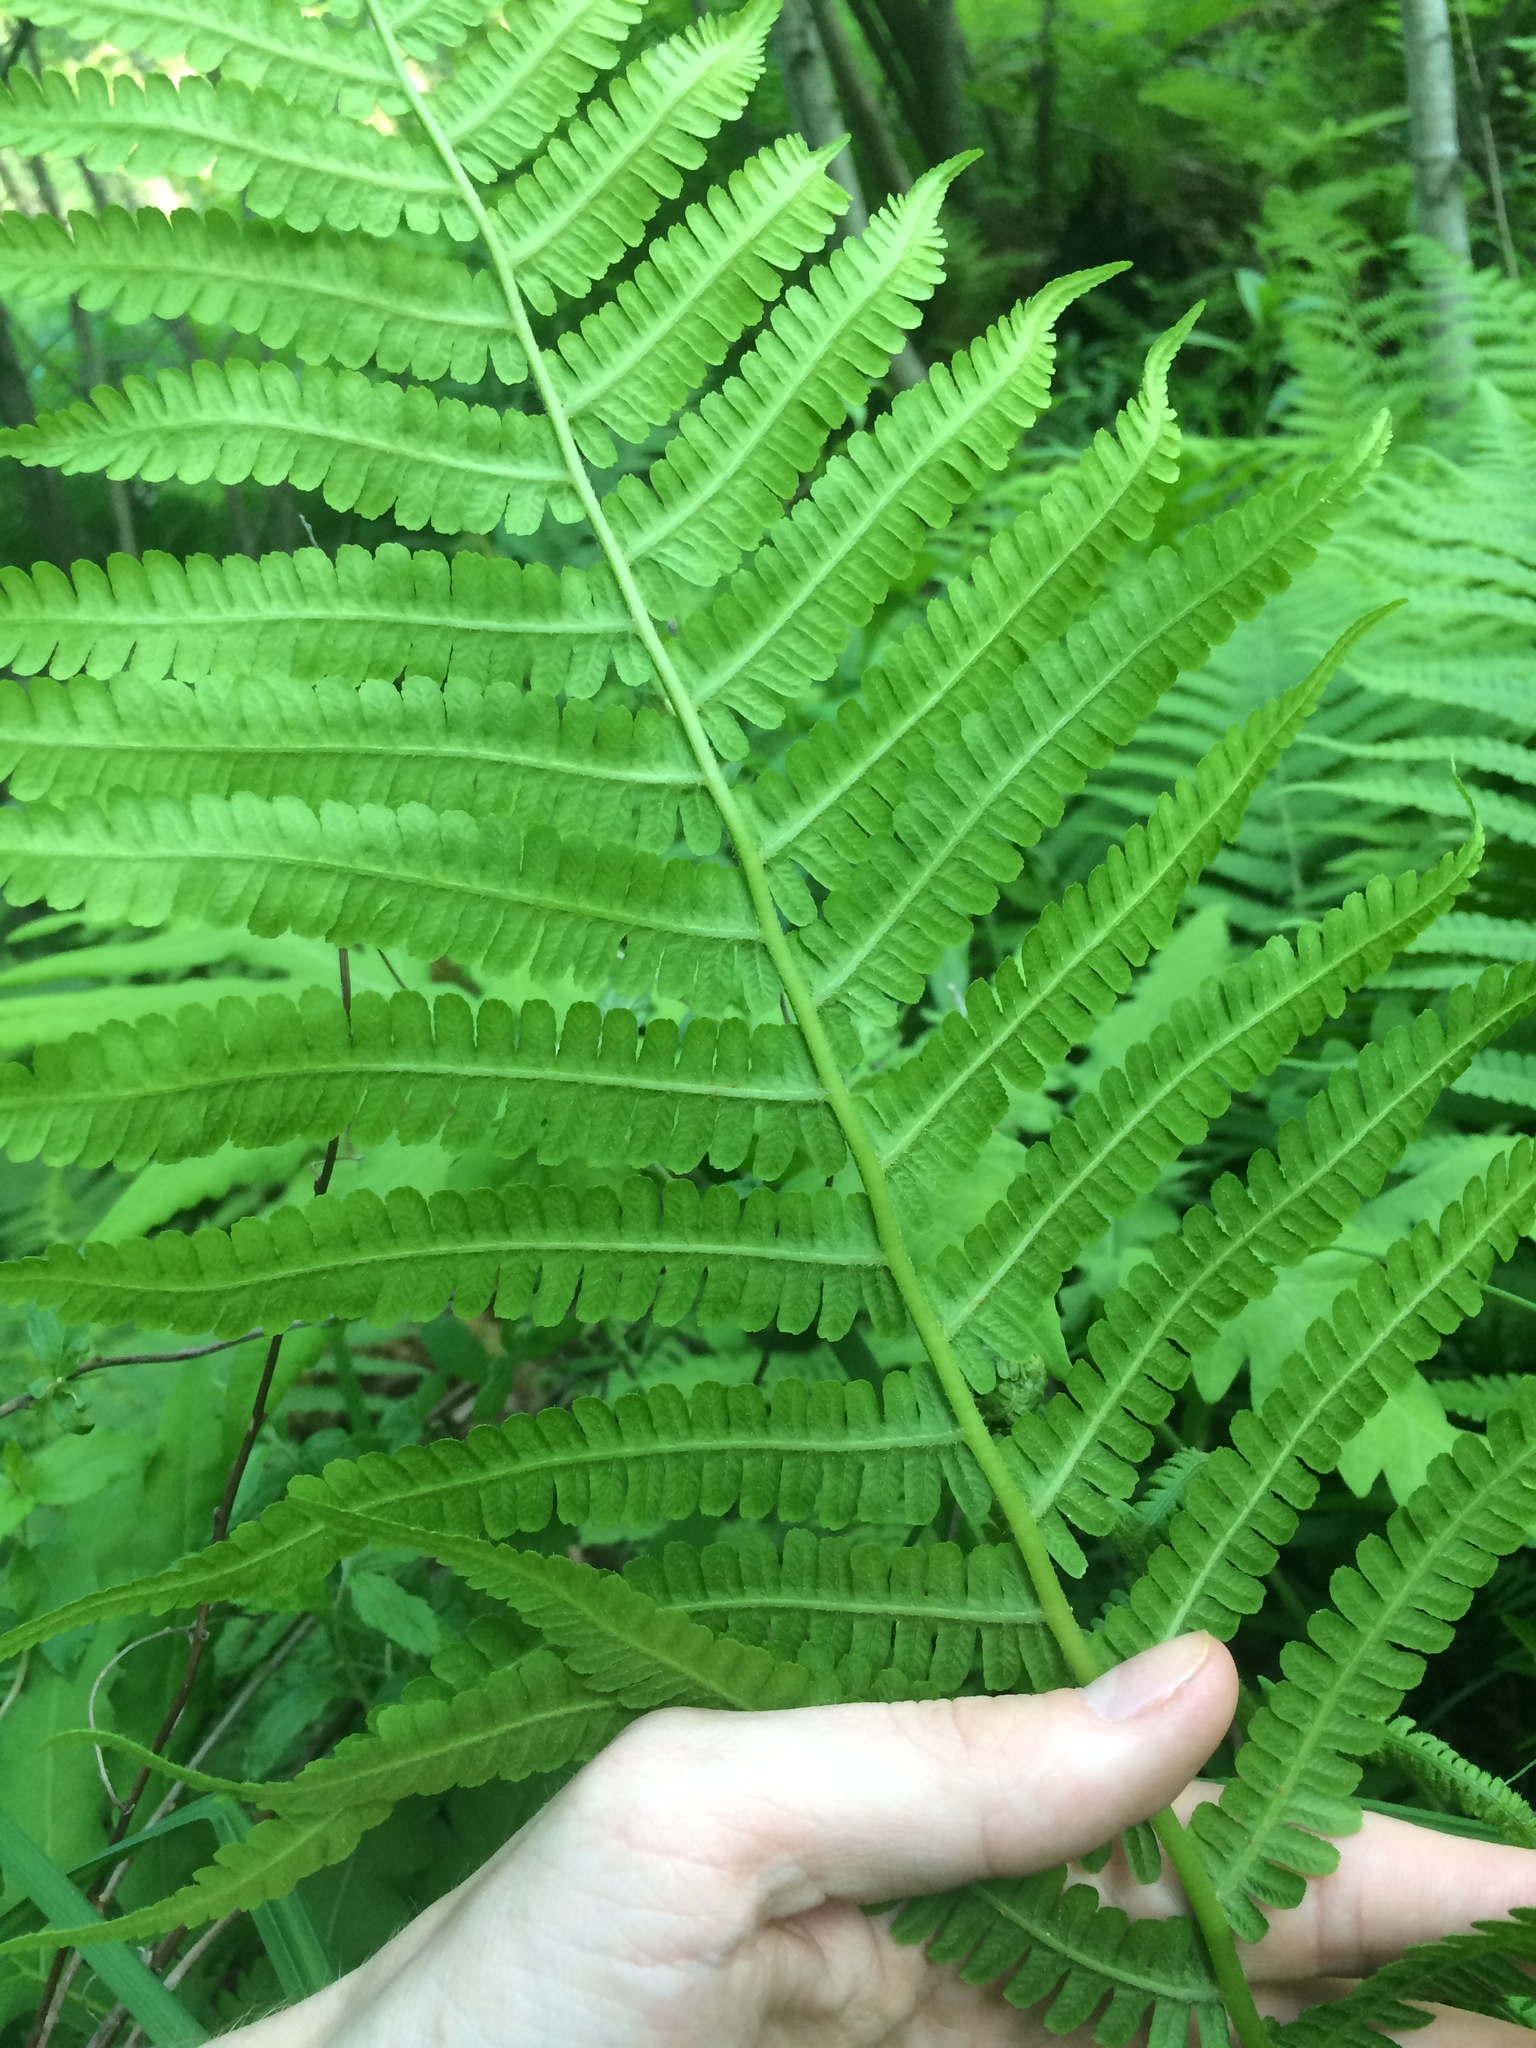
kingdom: Plantae
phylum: Tracheophyta
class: Polypodiopsida
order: Polypodiales
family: Athyriaceae
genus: Deparia
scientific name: Deparia acrostichoides
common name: Silver false spleenwort
